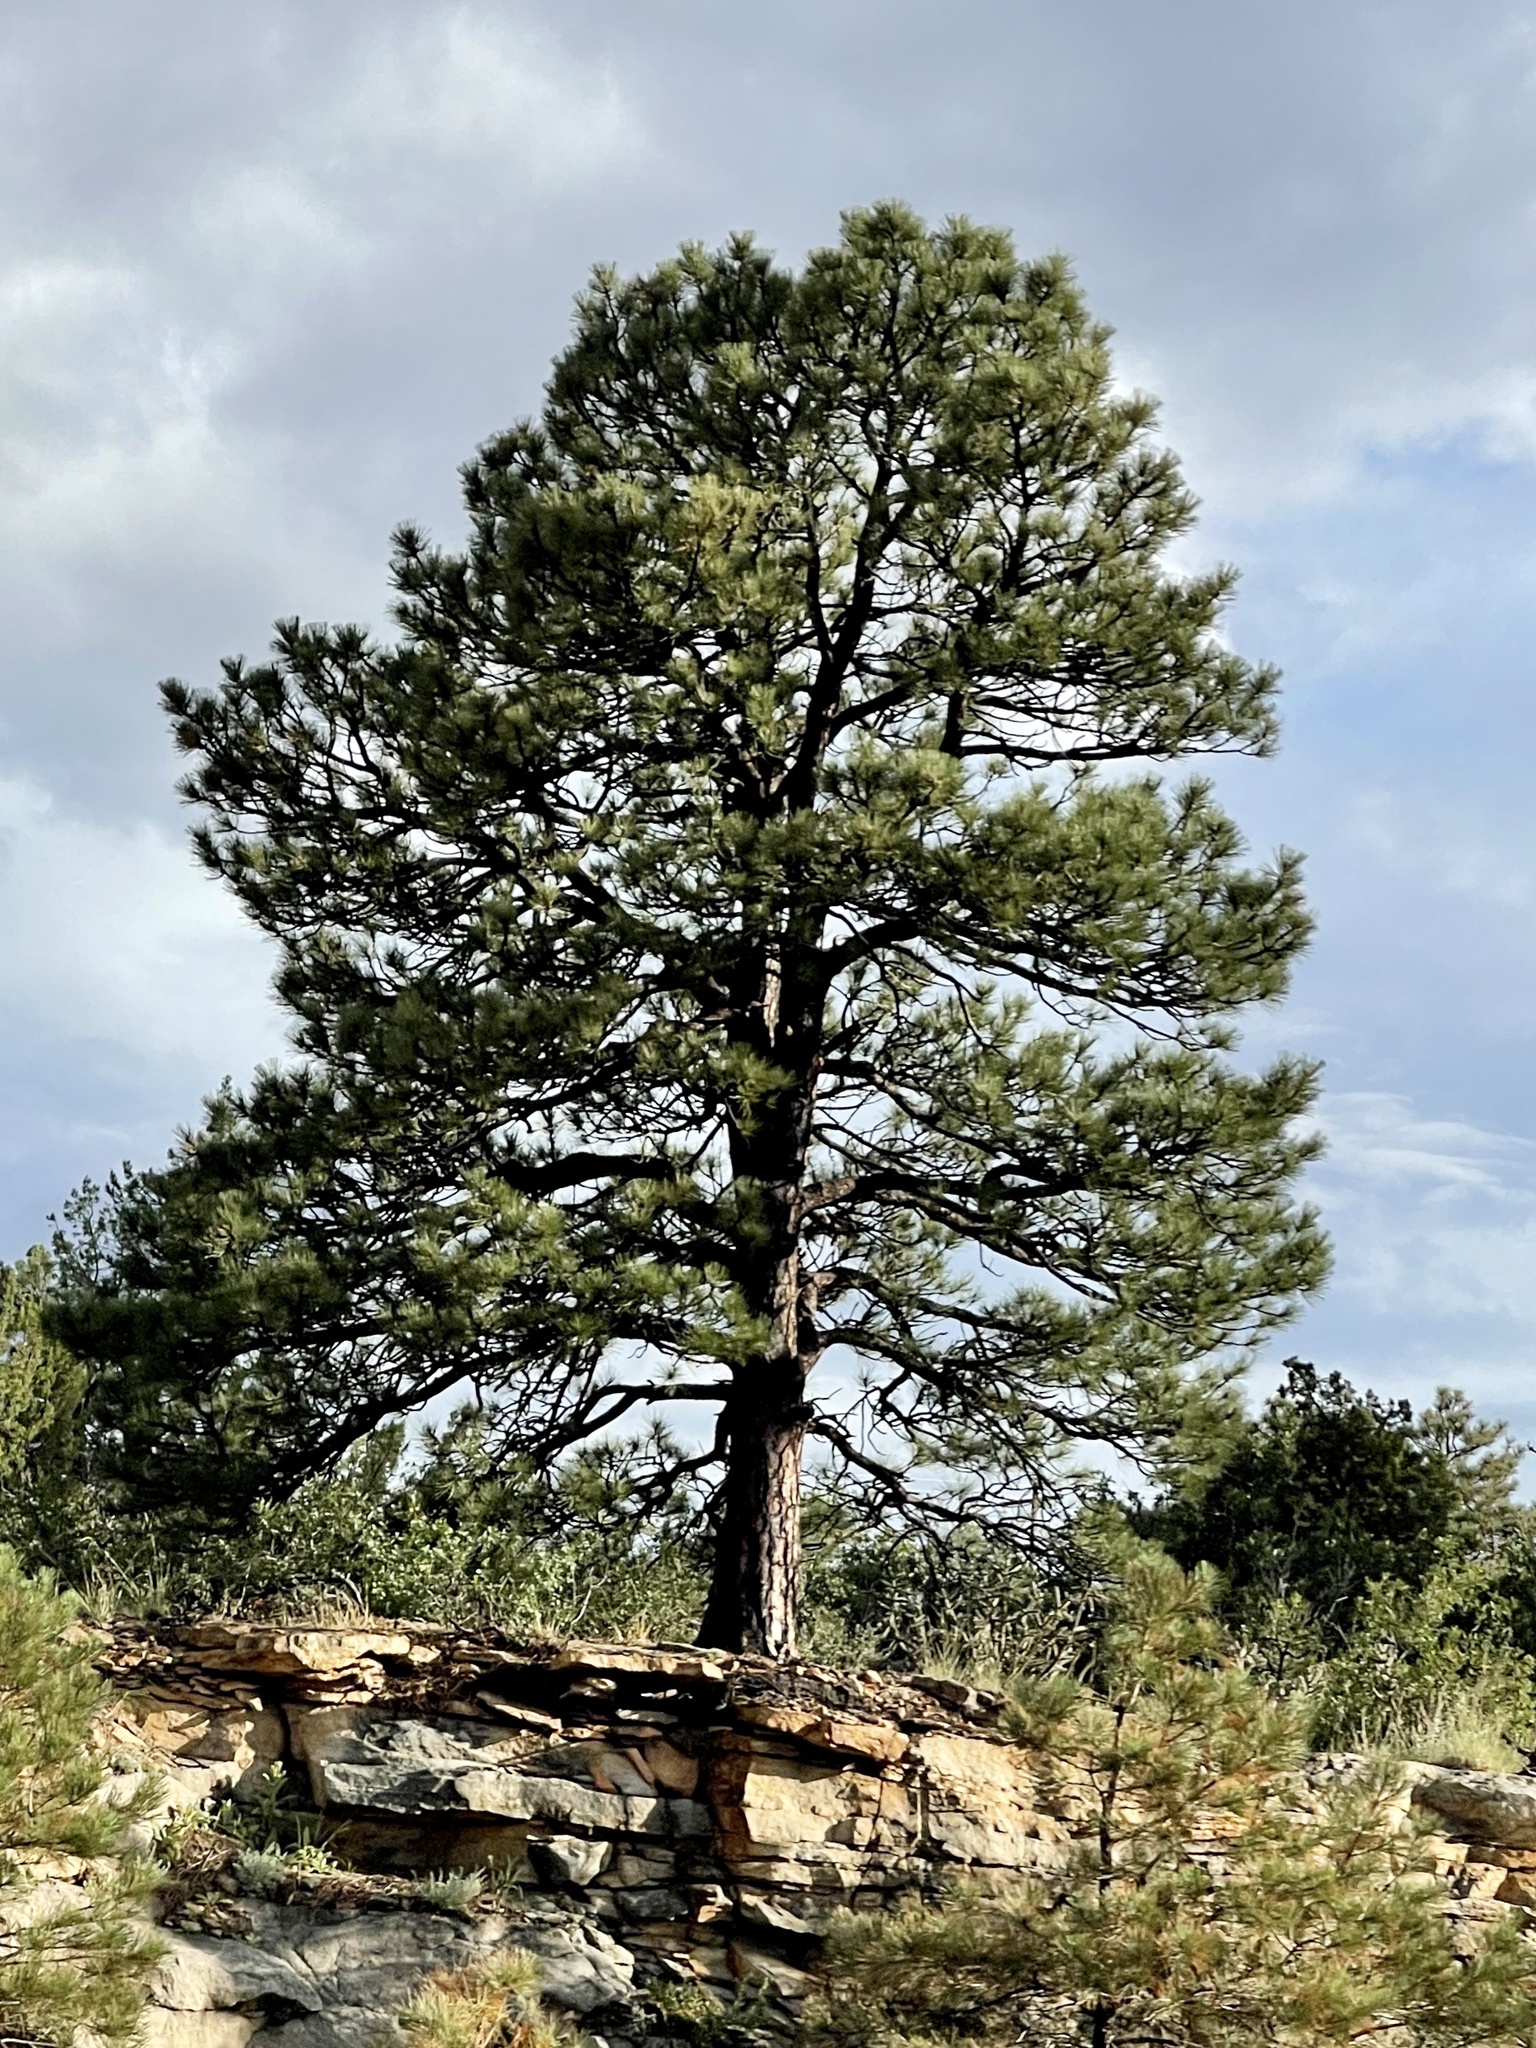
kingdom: Plantae
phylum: Tracheophyta
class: Pinopsida
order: Pinales
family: Pinaceae
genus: Pinus
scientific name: Pinus ponderosa
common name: Western yellow-pine
